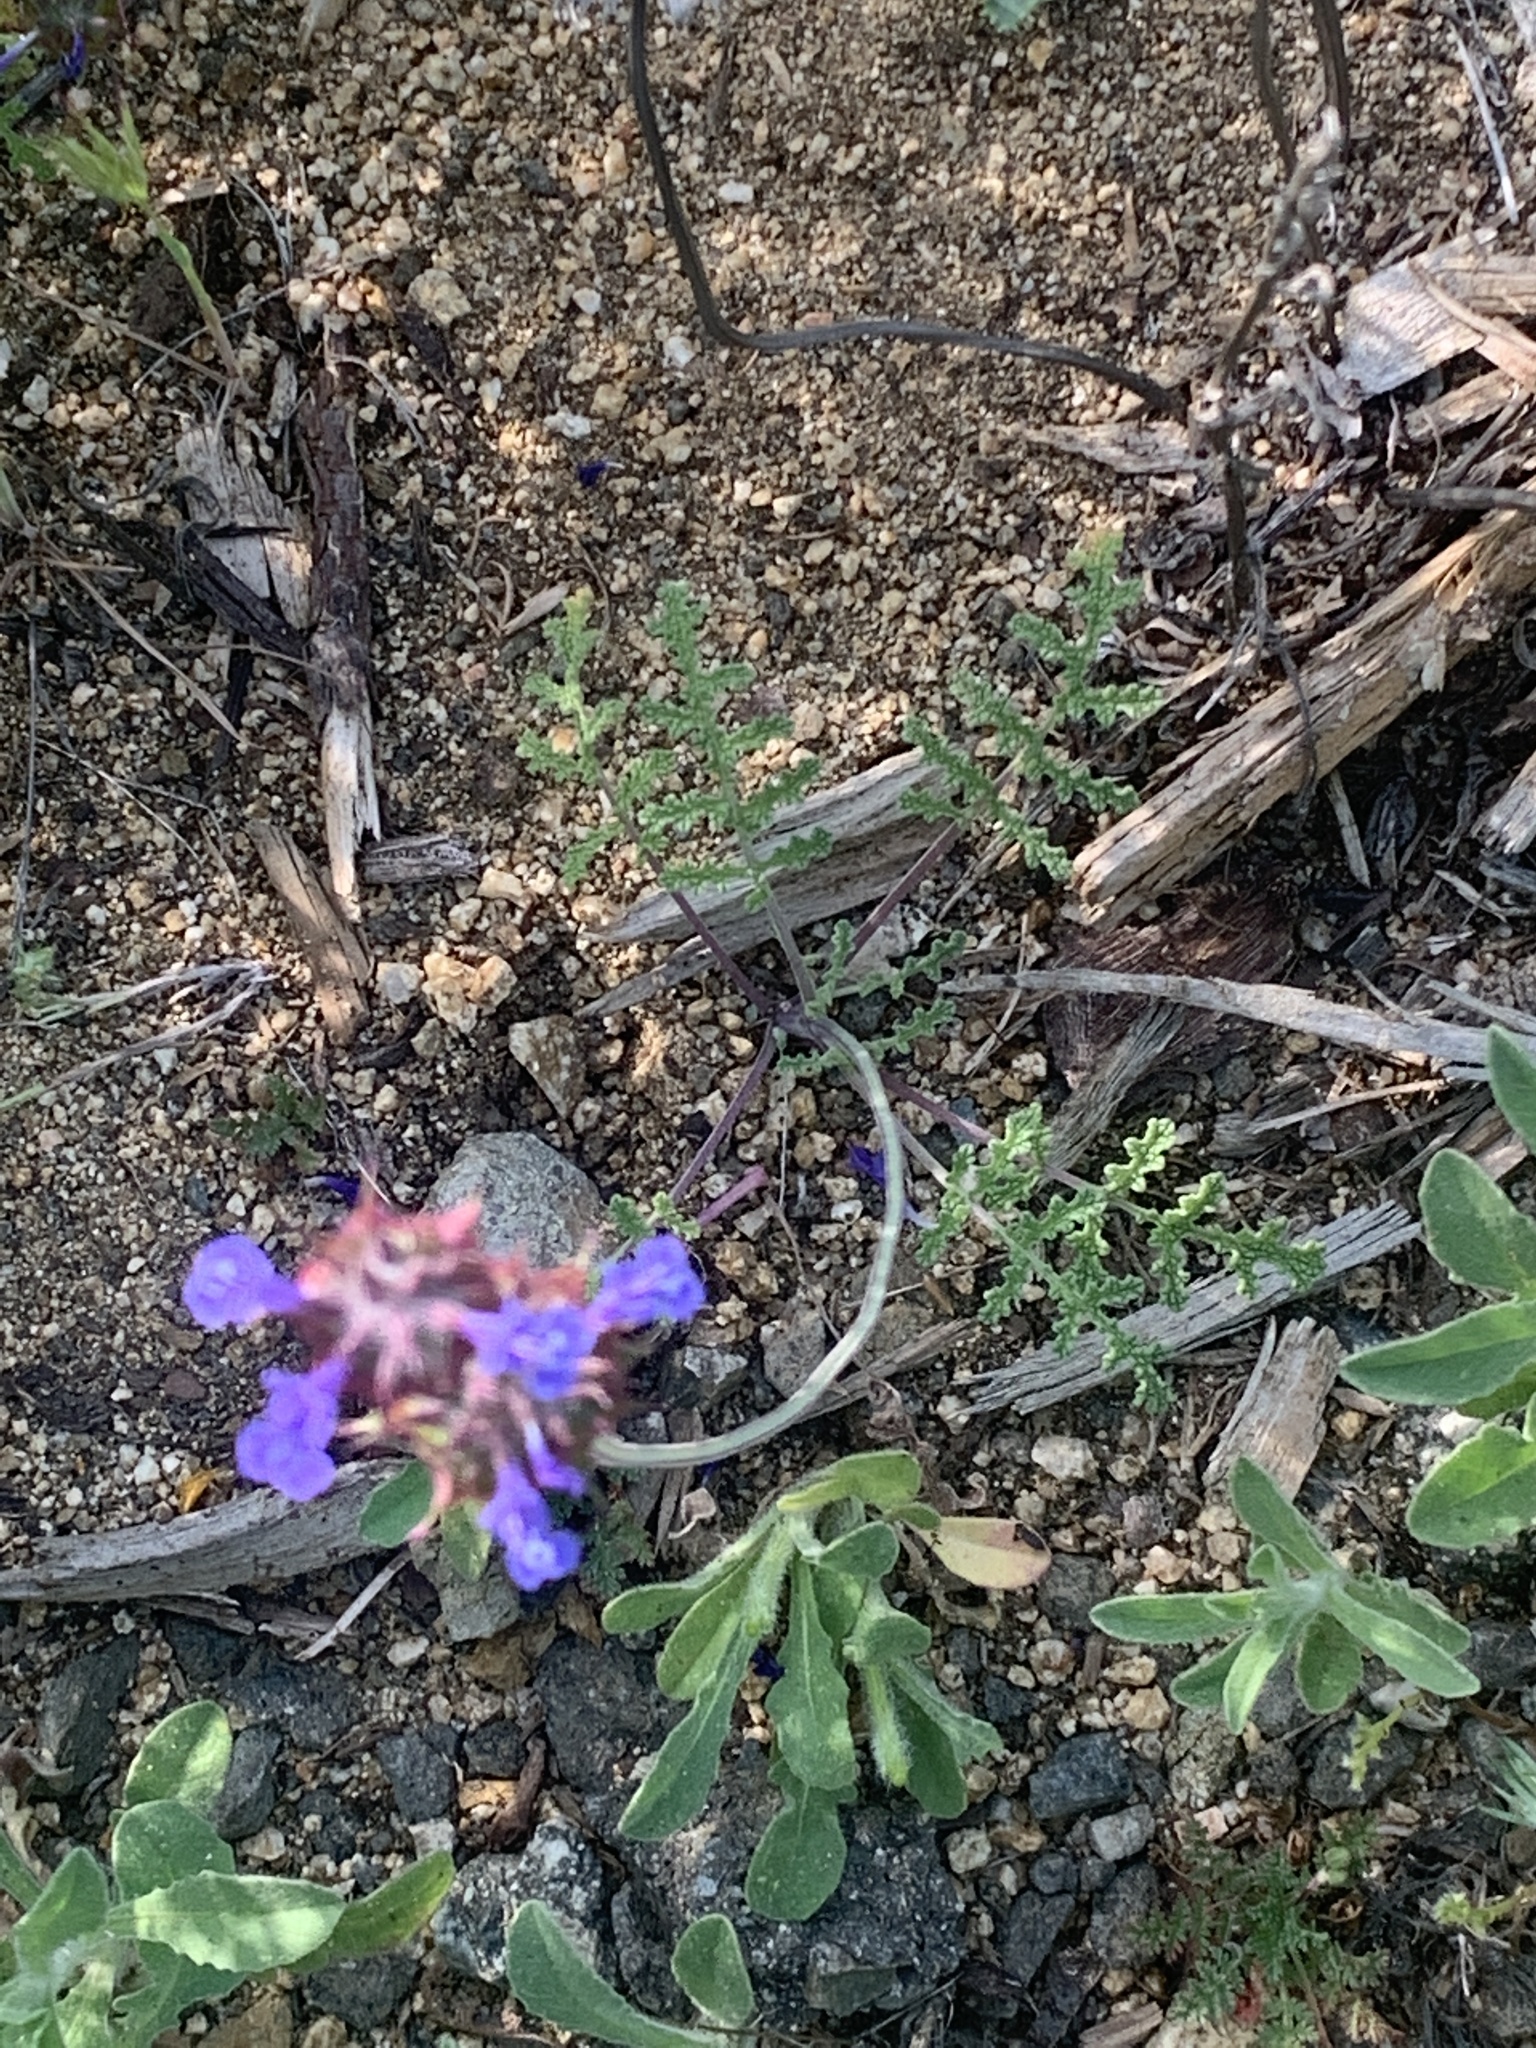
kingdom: Plantae
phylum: Tracheophyta
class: Magnoliopsida
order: Lamiales
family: Lamiaceae
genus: Salvia
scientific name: Salvia columbariae
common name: Chia
